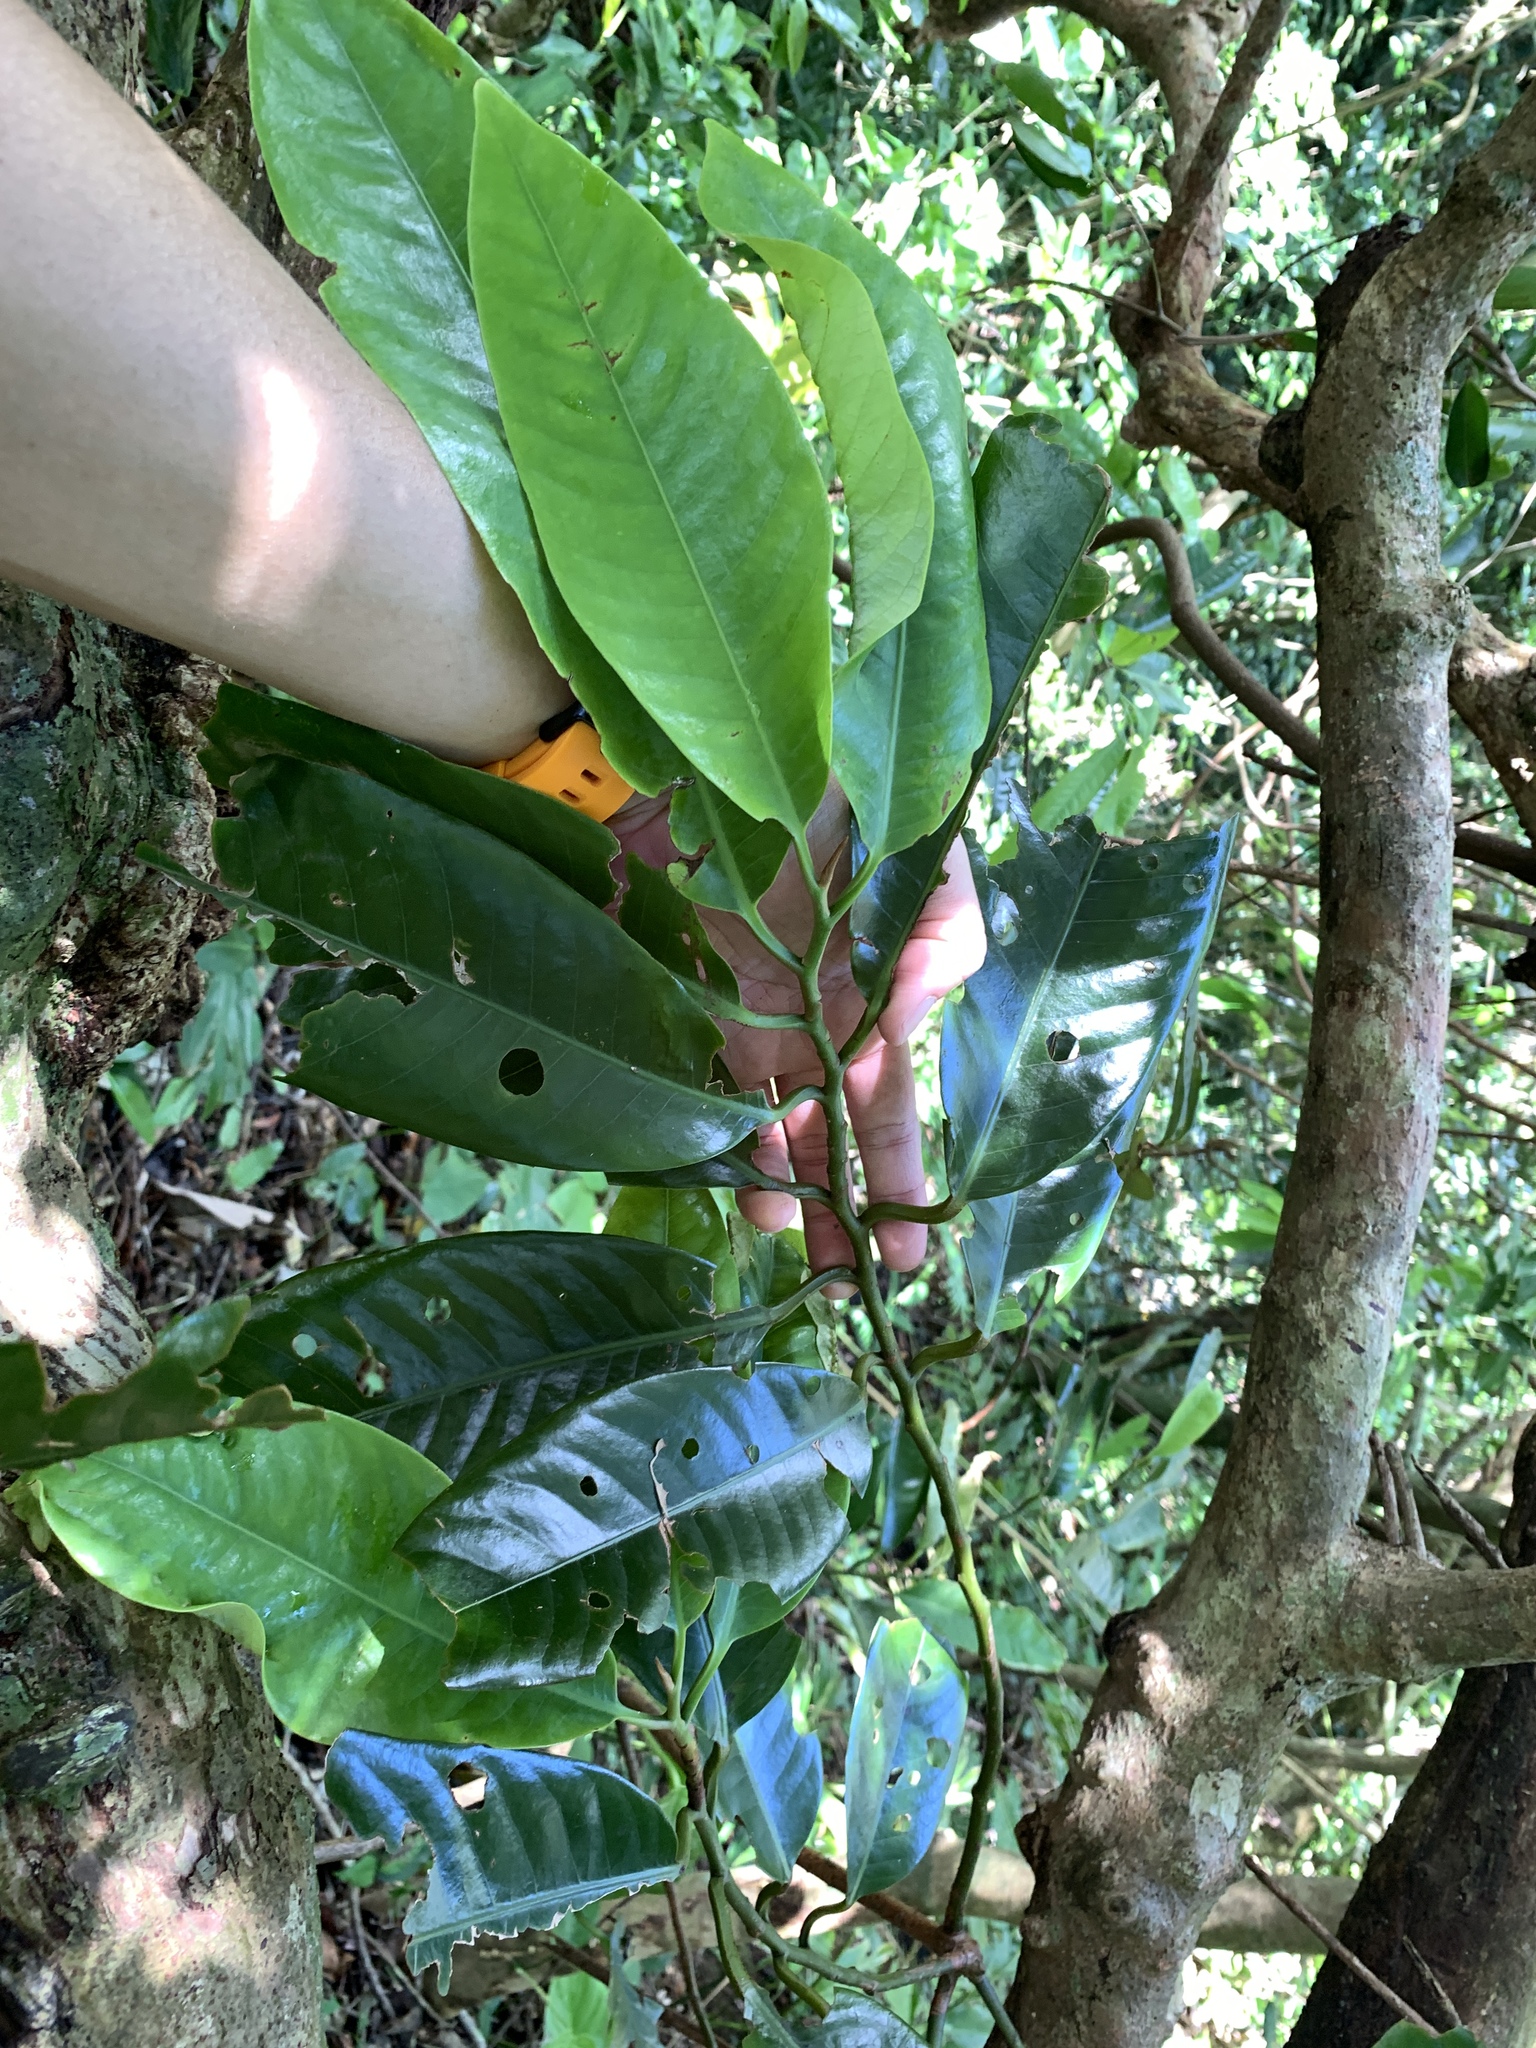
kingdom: Plantae
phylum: Tracheophyta
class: Magnoliopsida
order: Magnoliales
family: Myristicaceae
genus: Myristica
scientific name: Myristica ceylanica
